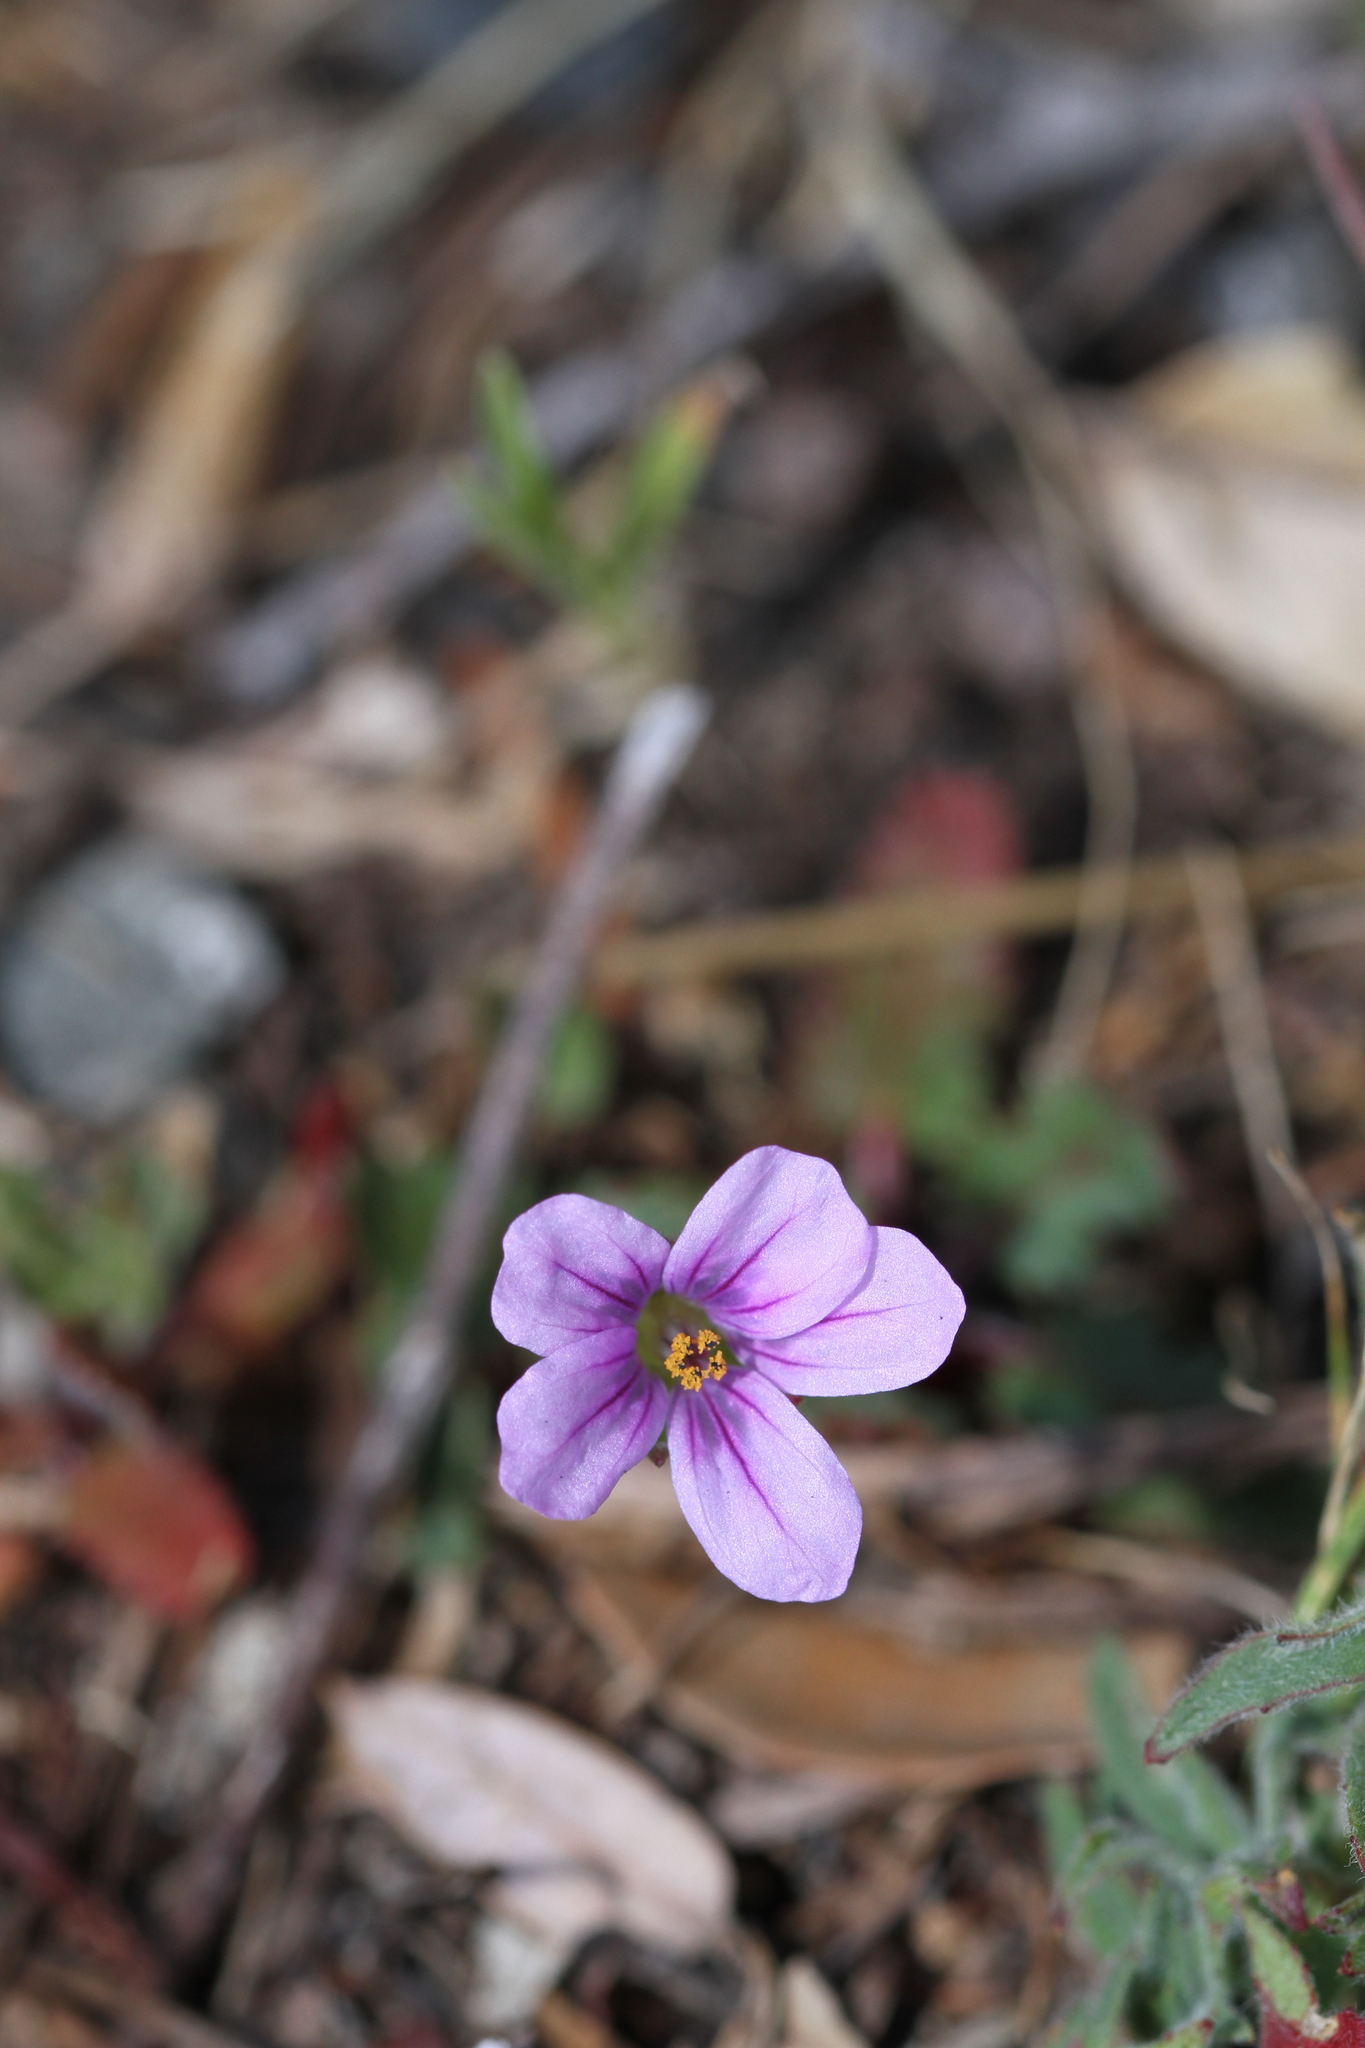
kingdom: Plantae
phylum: Tracheophyta
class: Magnoliopsida
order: Geraniales
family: Geraniaceae
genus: Erodium
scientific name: Erodium botrys
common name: Mediterranean stork's-bill
